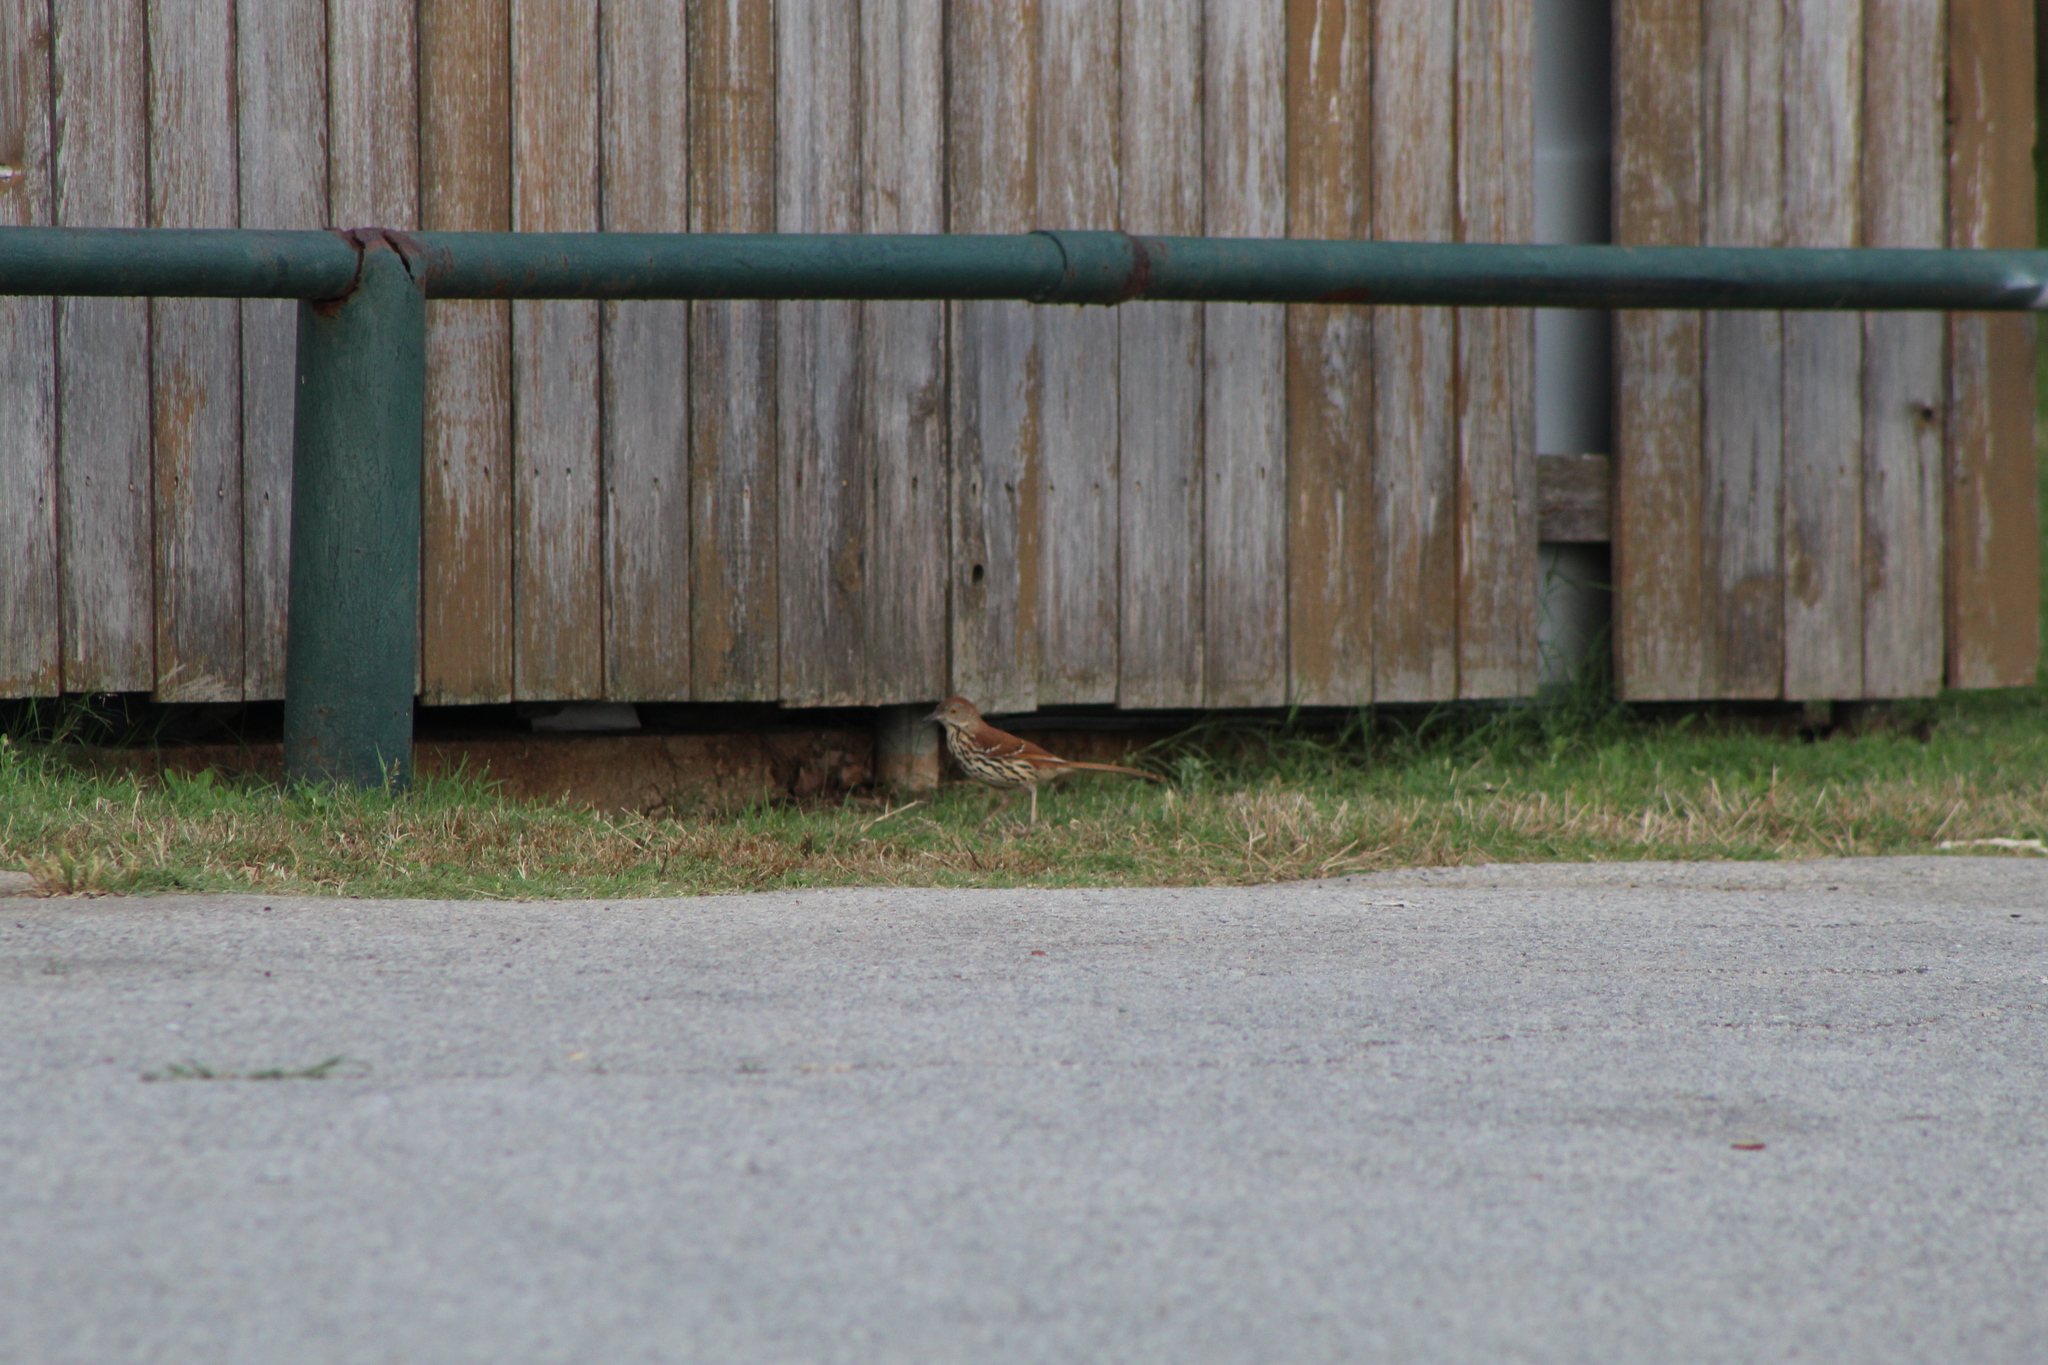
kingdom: Animalia
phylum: Chordata
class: Aves
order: Passeriformes
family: Mimidae
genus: Toxostoma
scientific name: Toxostoma rufum
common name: Brown thrasher
